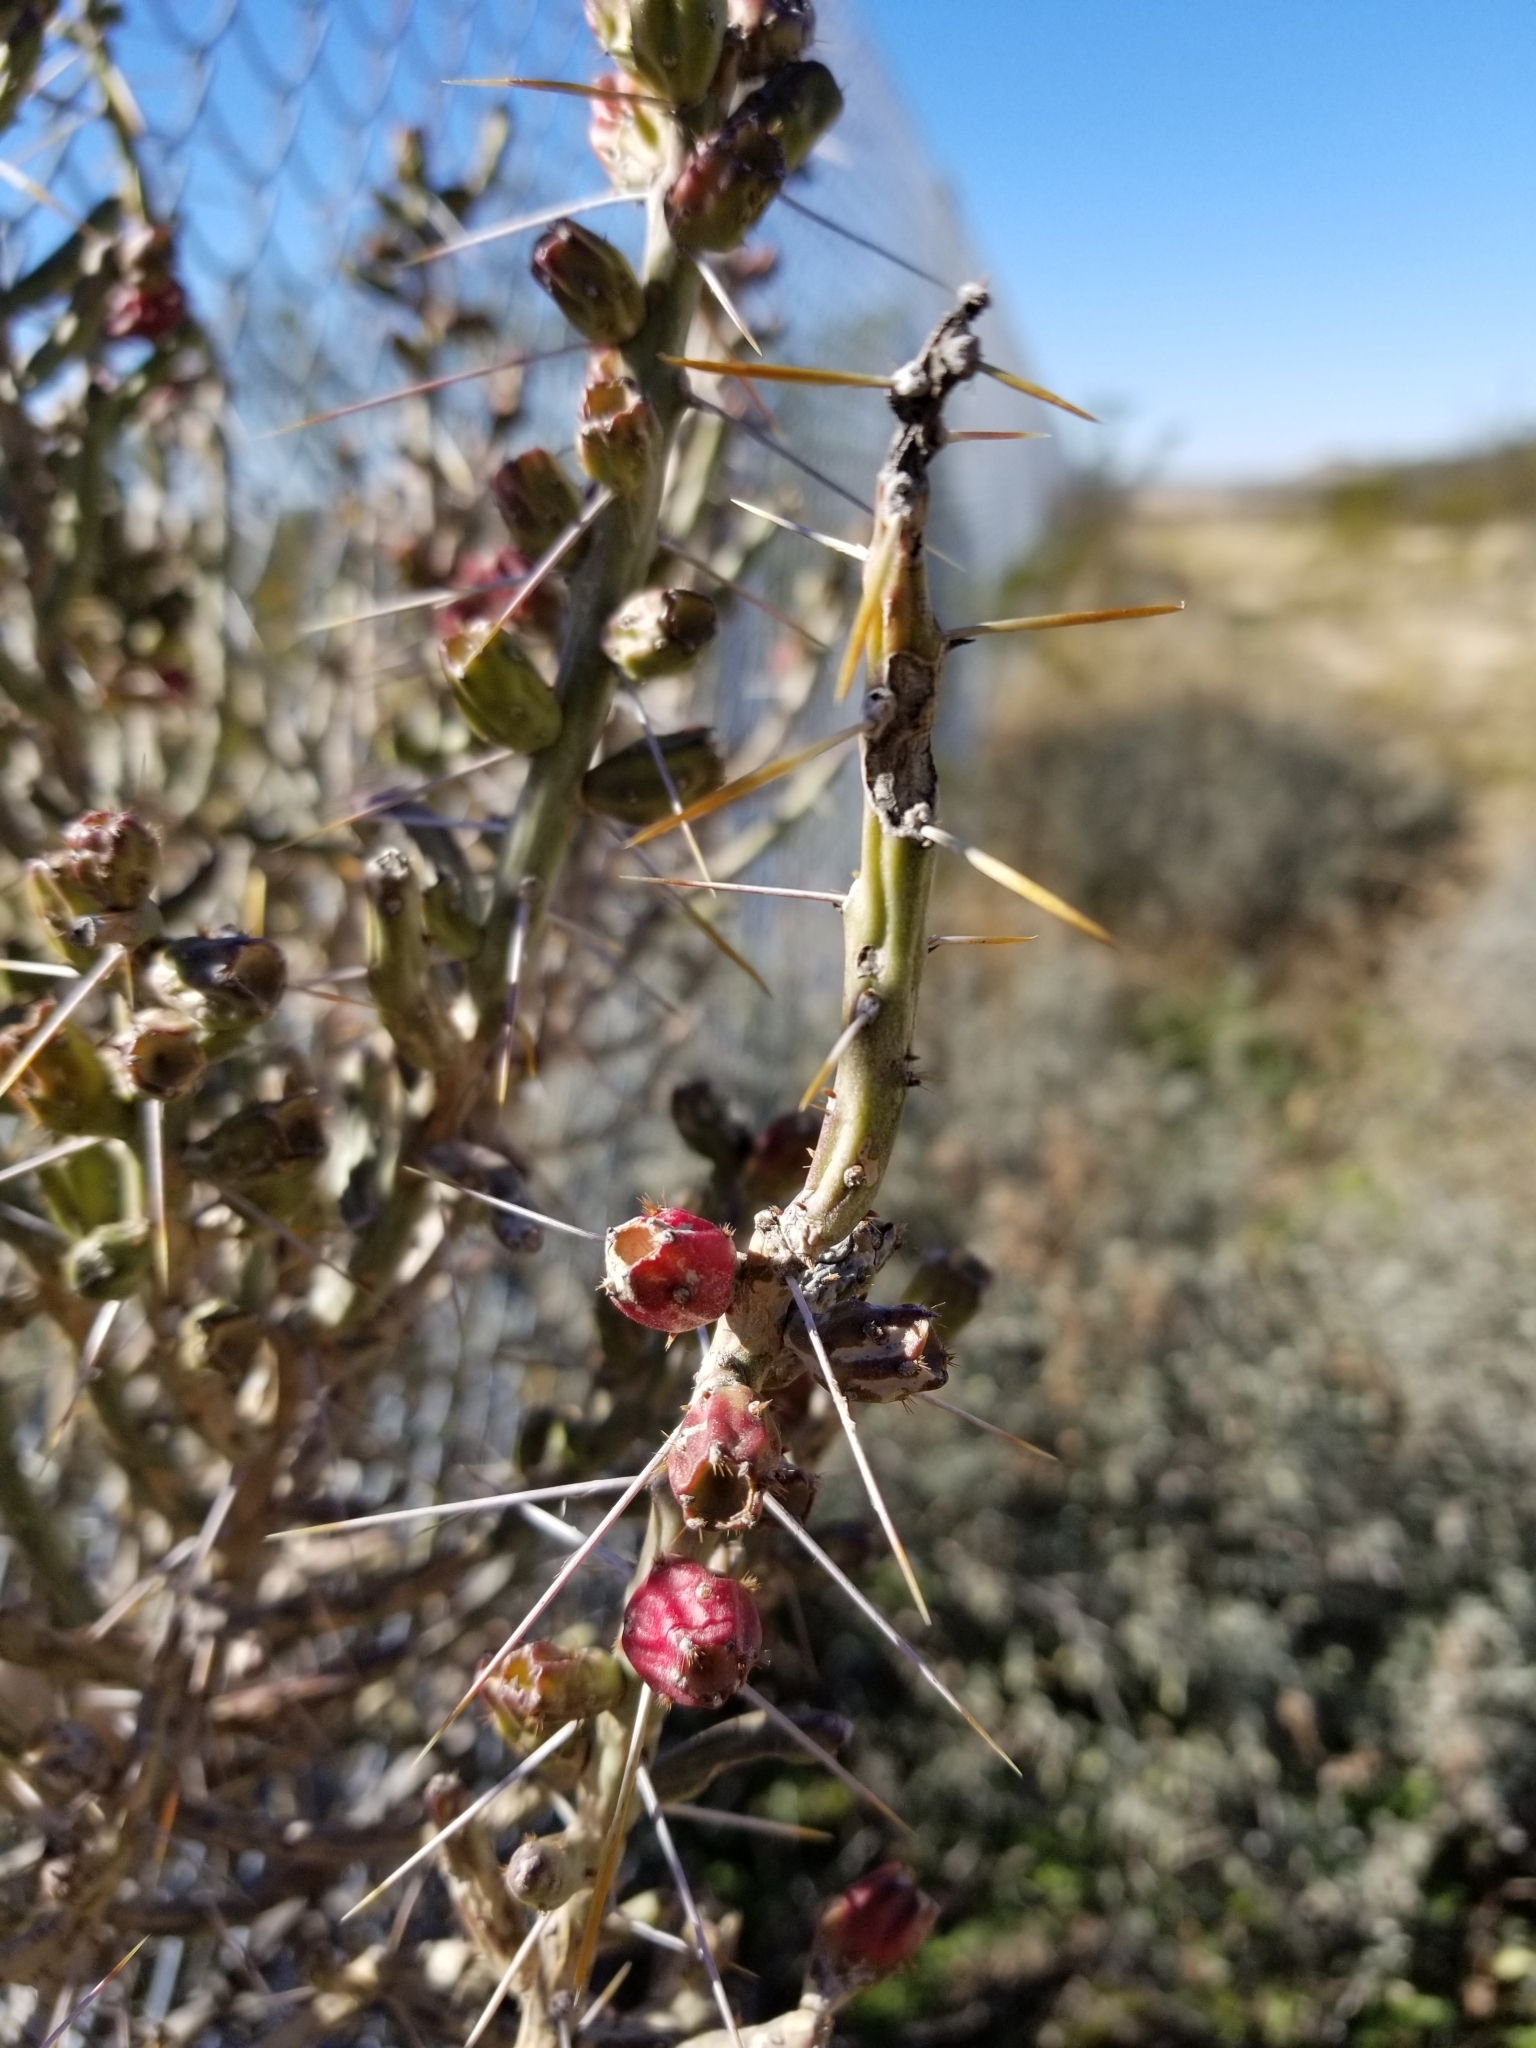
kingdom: Plantae
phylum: Tracheophyta
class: Magnoliopsida
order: Caryophyllales
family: Cactaceae
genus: Cylindropuntia
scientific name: Cylindropuntia leptocaulis
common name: Christmas cactus
